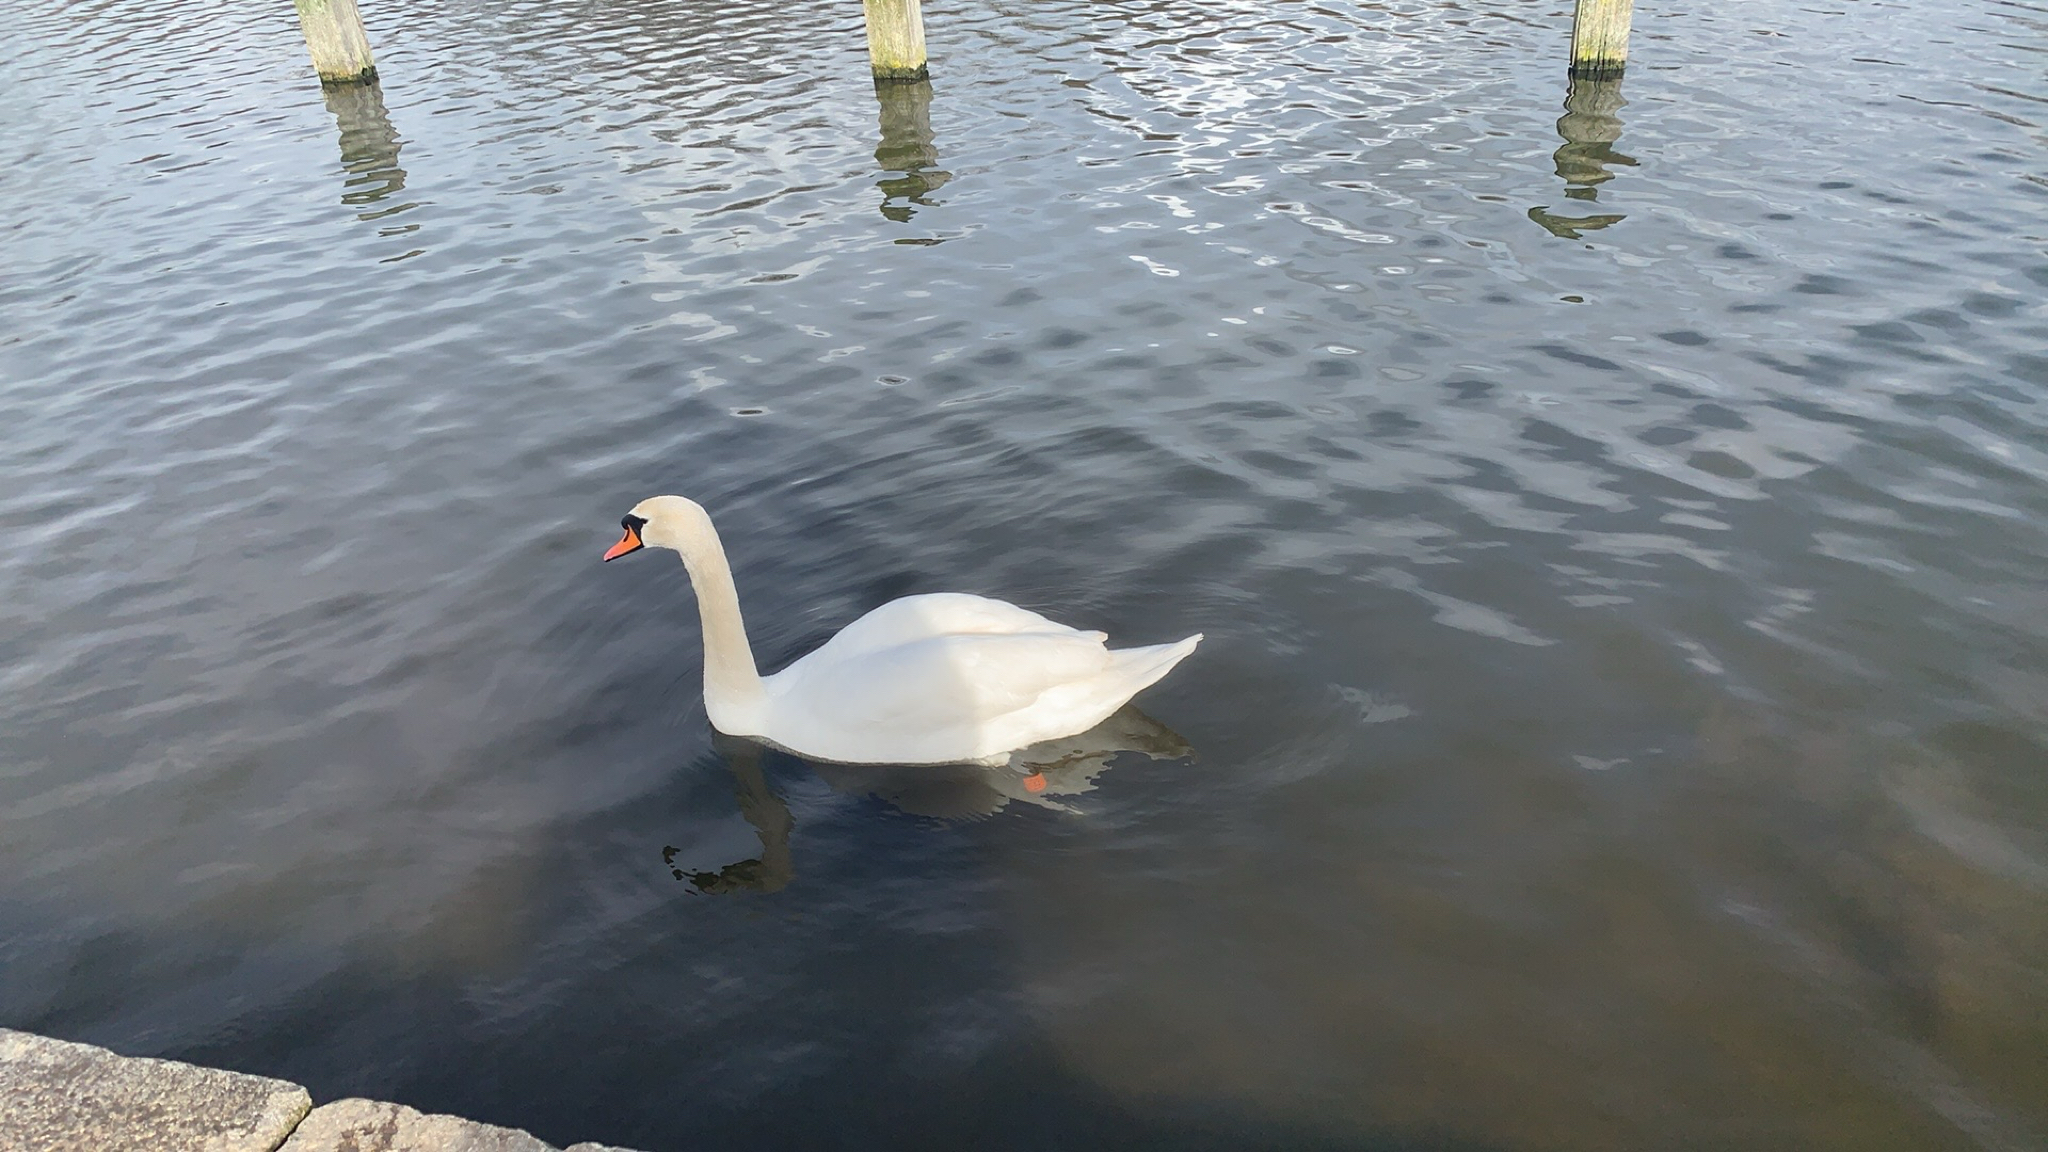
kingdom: Animalia
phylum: Chordata
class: Aves
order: Anseriformes
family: Anatidae
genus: Cygnus
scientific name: Cygnus olor
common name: Mute swan
